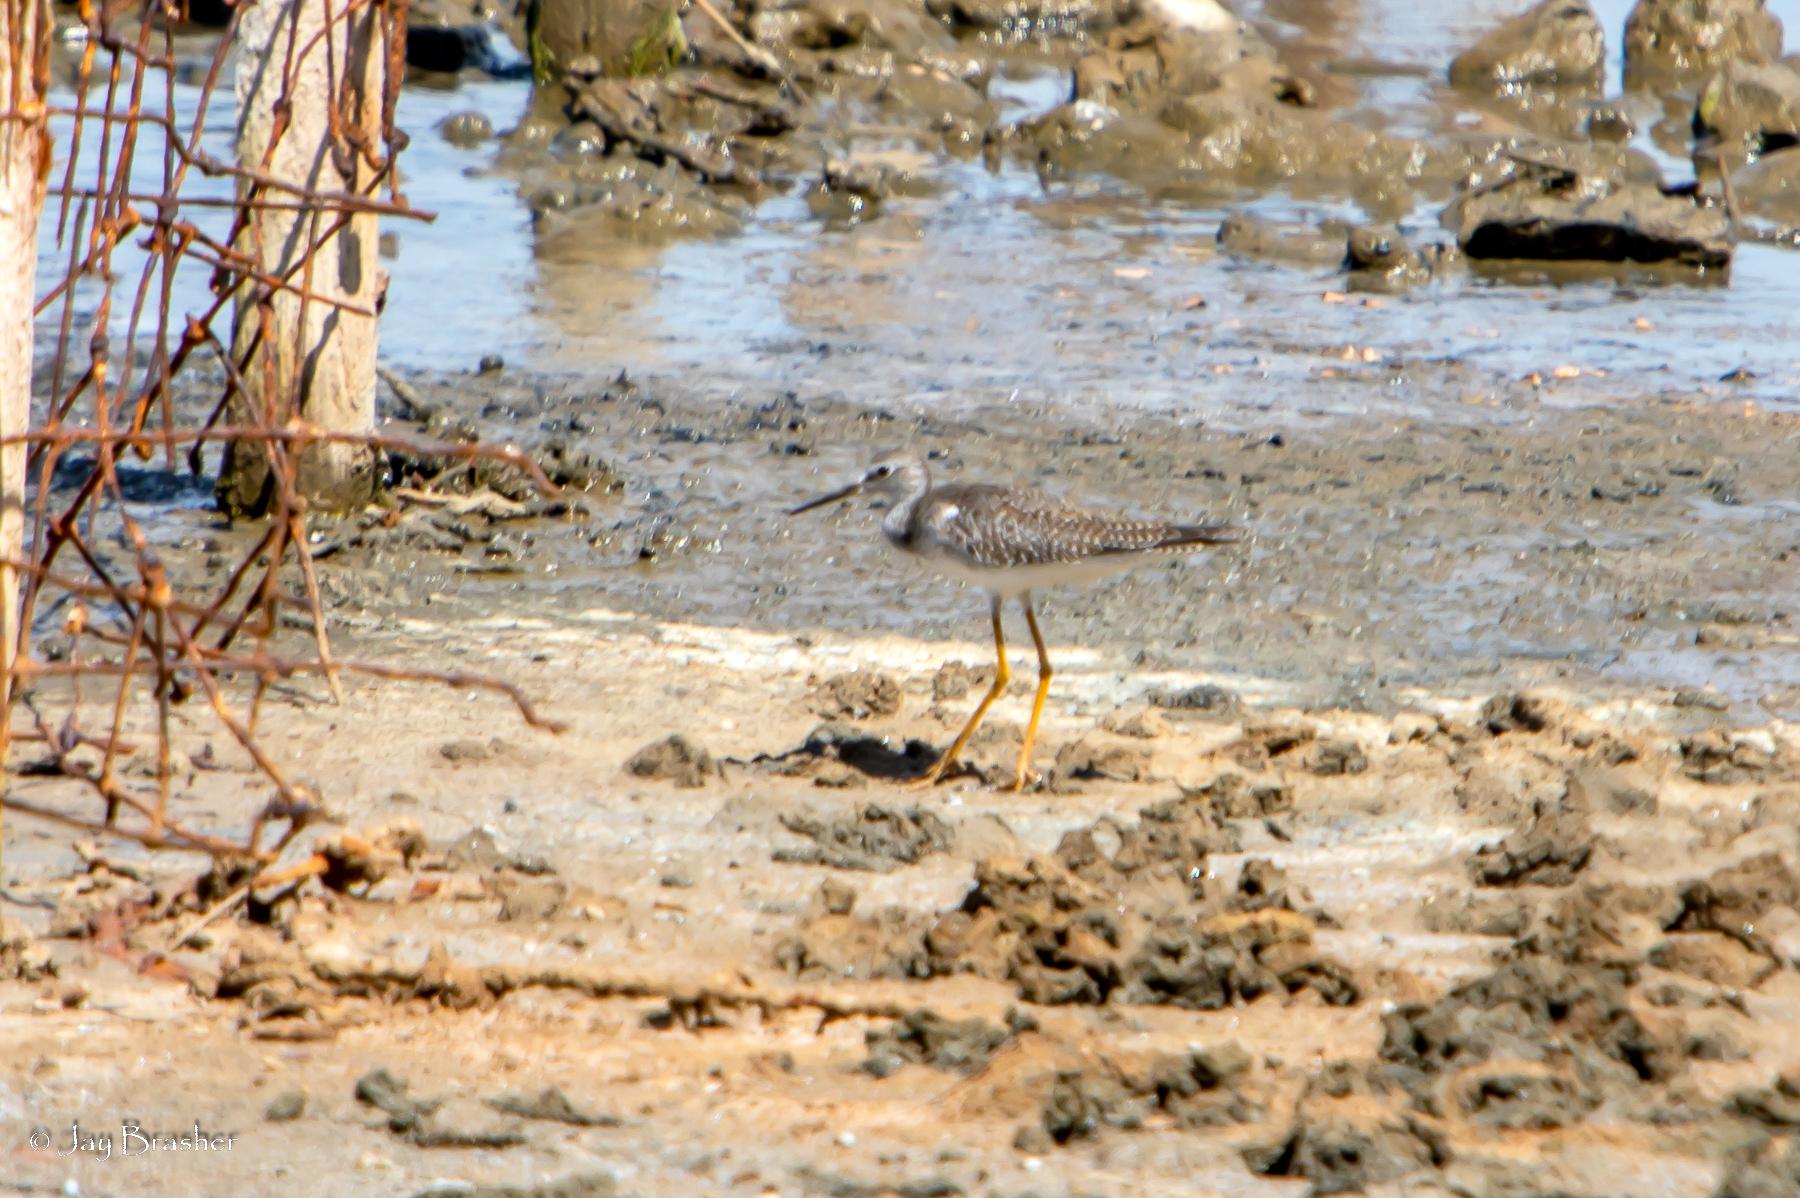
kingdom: Animalia
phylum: Chordata
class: Aves
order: Charadriiformes
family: Scolopacidae
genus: Tringa
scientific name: Tringa melanoleuca
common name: Greater yellowlegs
